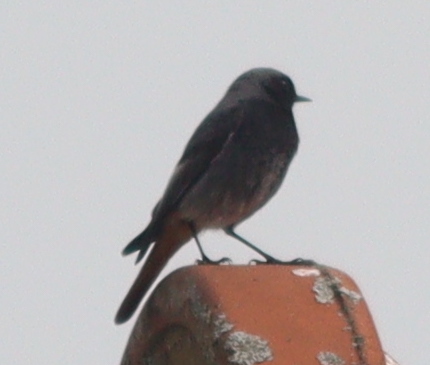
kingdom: Animalia
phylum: Chordata
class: Aves
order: Passeriformes
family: Muscicapidae
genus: Phoenicurus
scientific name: Phoenicurus ochruros
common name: Black redstart
